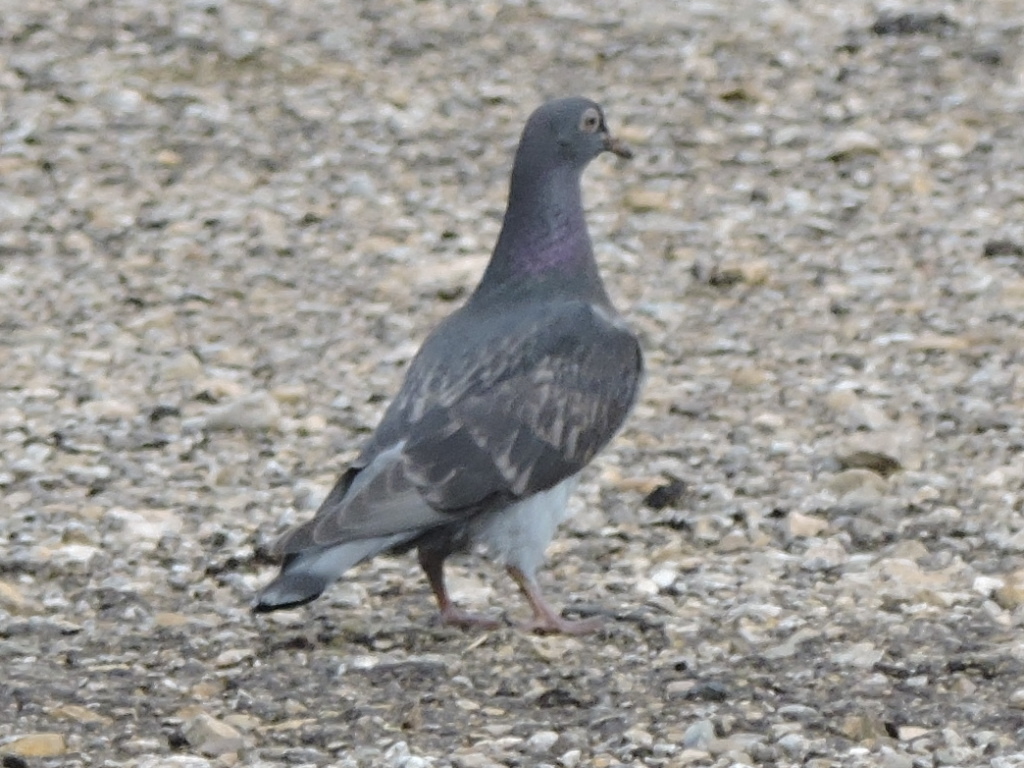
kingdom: Animalia
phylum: Chordata
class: Aves
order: Columbiformes
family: Columbidae
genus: Columba
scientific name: Columba livia
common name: Rock pigeon
